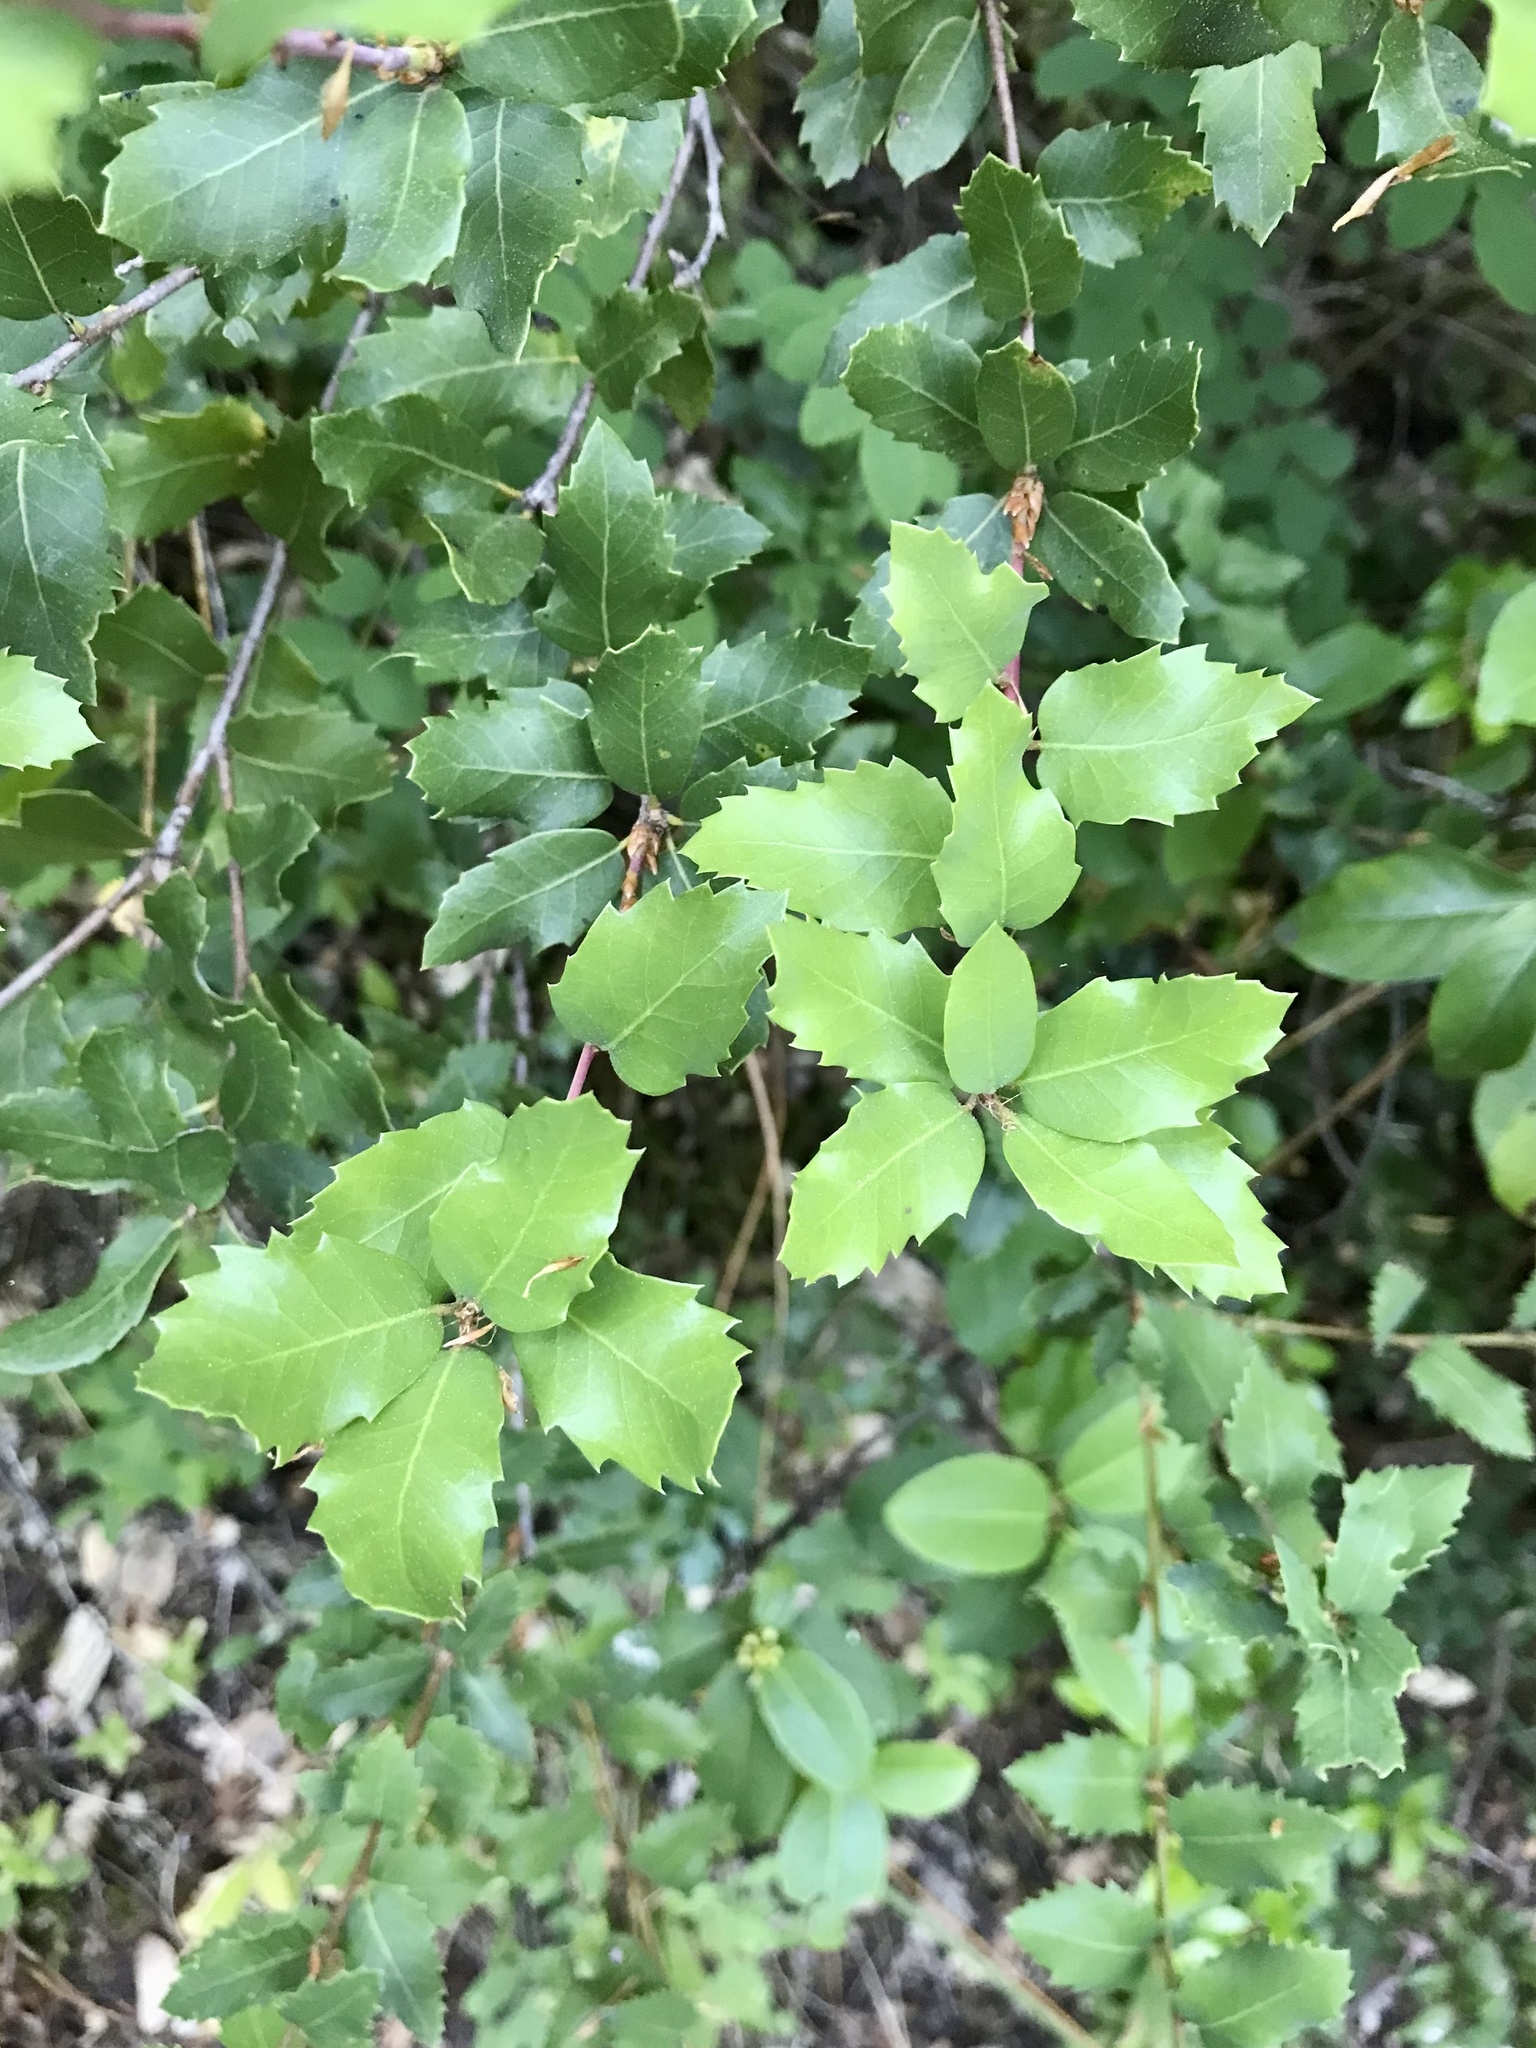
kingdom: Plantae
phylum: Tracheophyta
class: Magnoliopsida
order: Fagales
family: Fagaceae
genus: Quercus
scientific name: Quercus chrysolepis
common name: Canyon live oak
